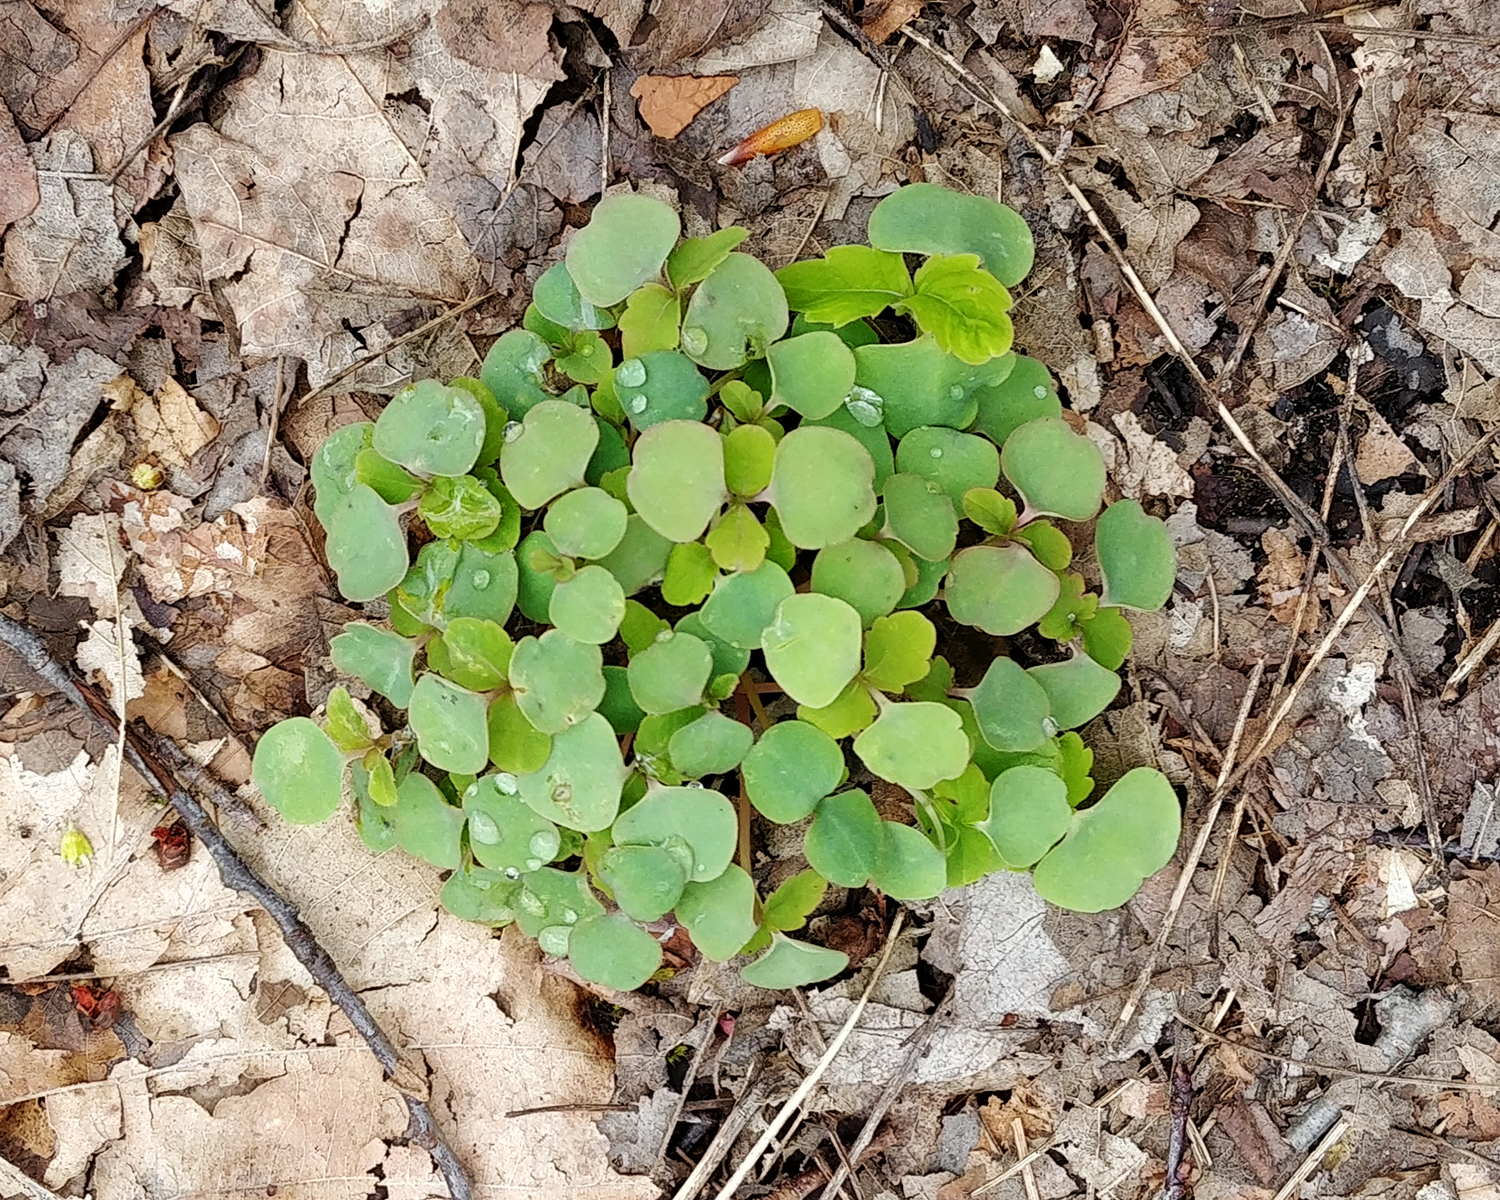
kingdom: Plantae
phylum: Tracheophyta
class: Magnoliopsida
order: Ericales
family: Balsaminaceae
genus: Impatiens
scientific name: Impatiens
